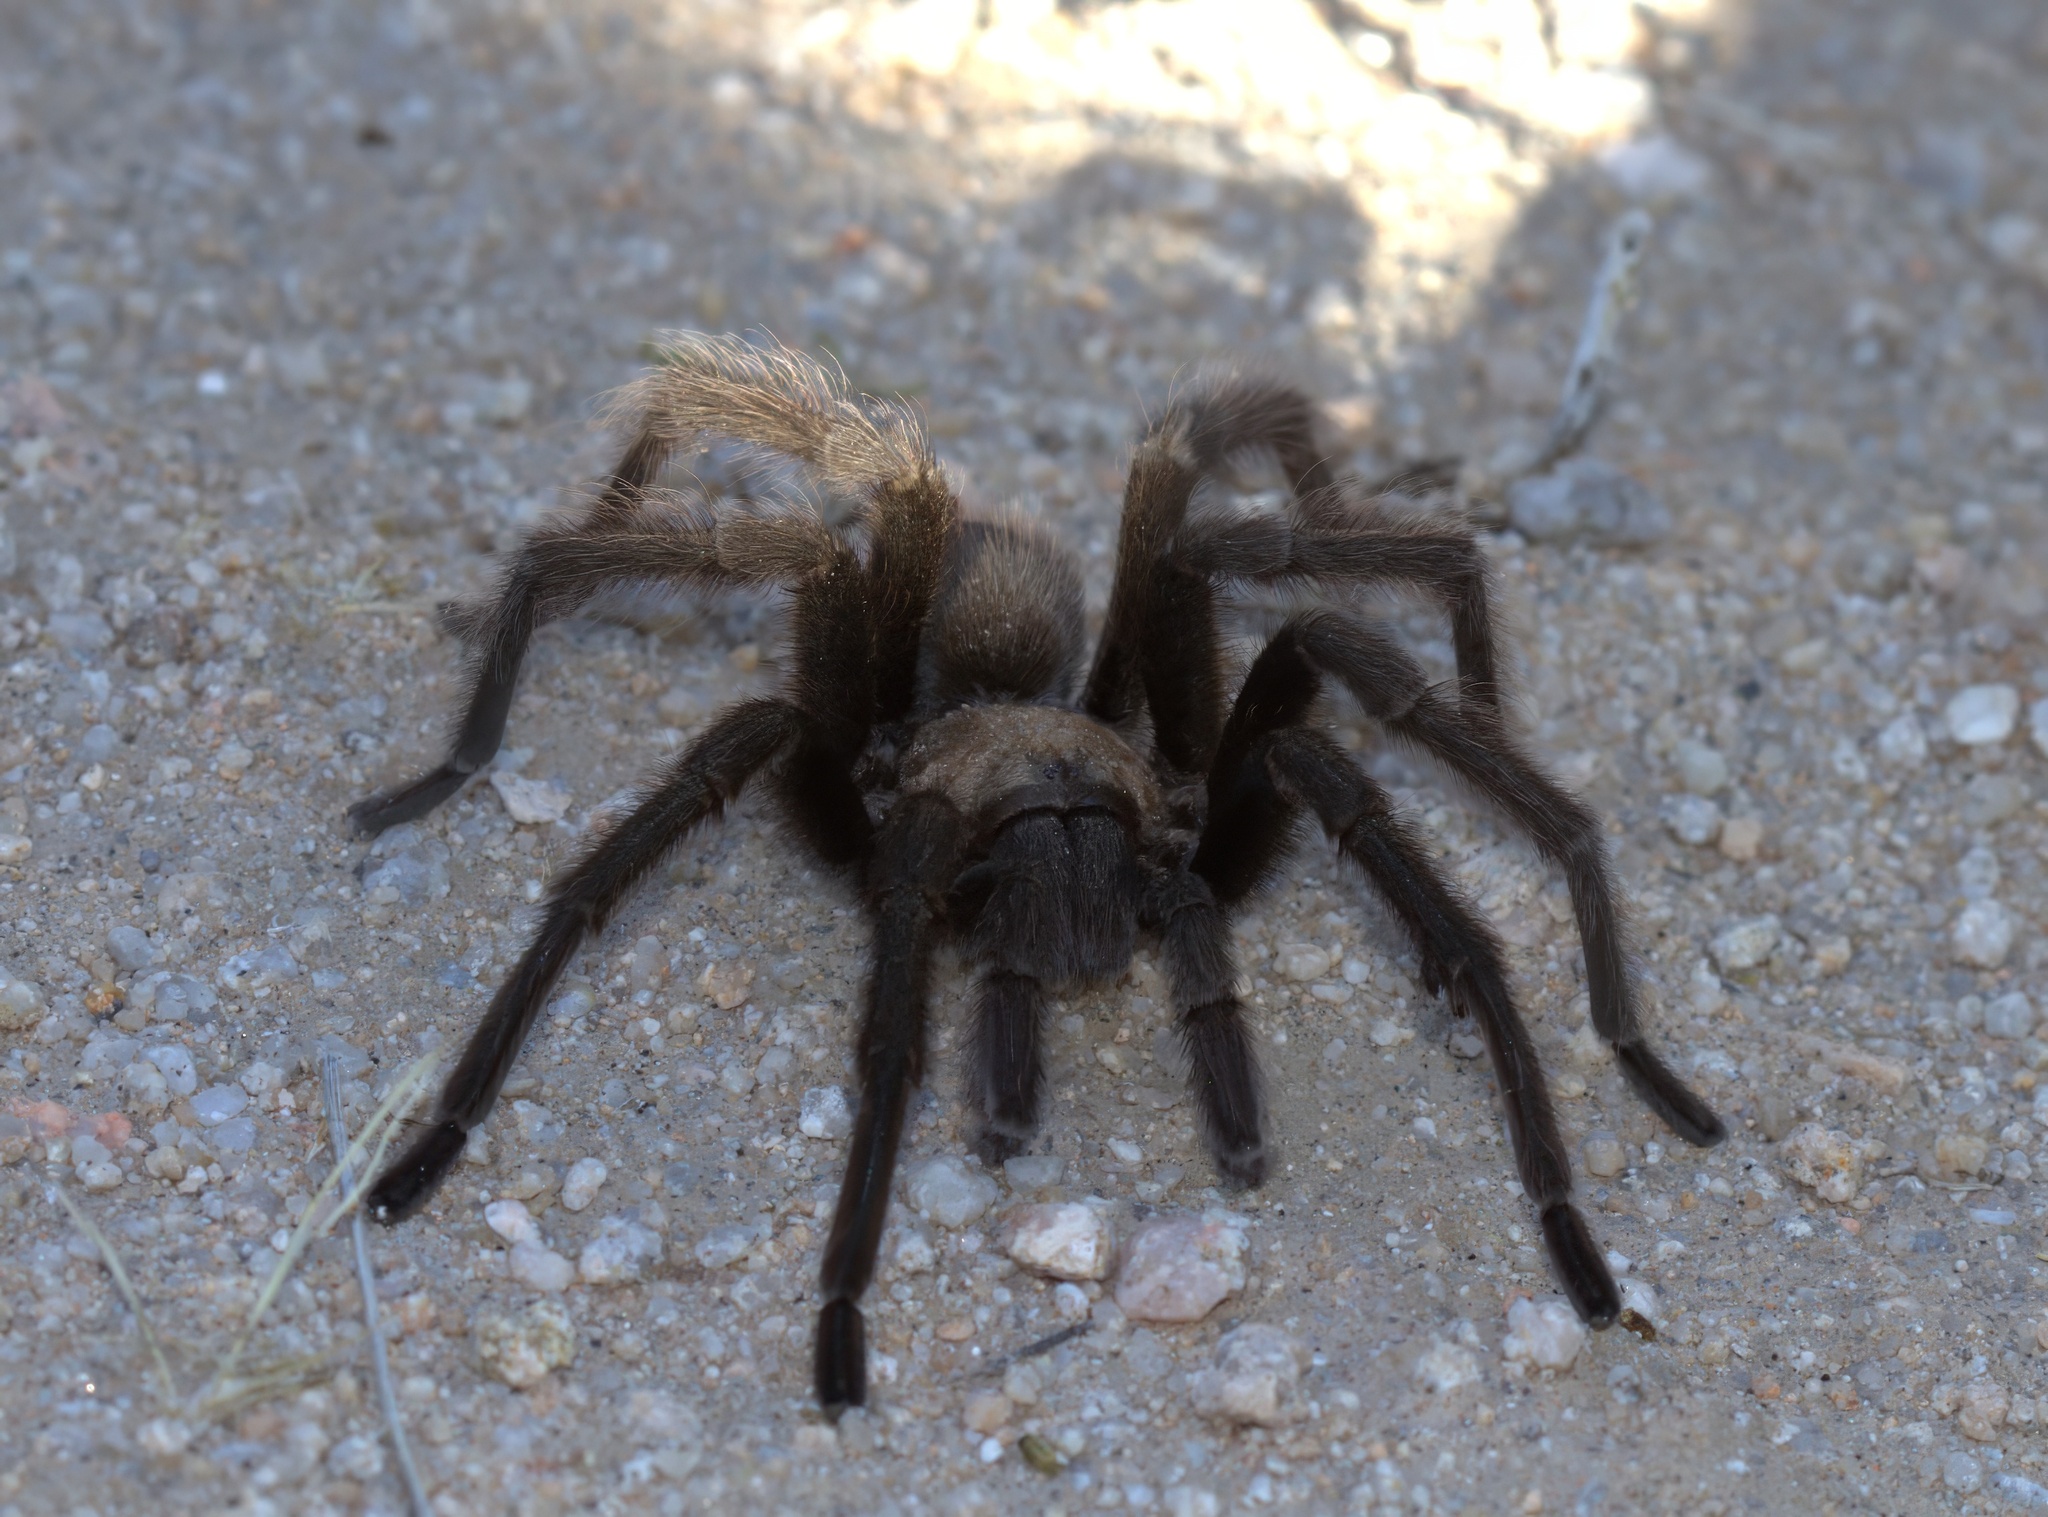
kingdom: Animalia
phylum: Arthropoda
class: Arachnida
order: Araneae
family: Theraphosidae
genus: Aphonopelma
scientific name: Aphonopelma iodius
